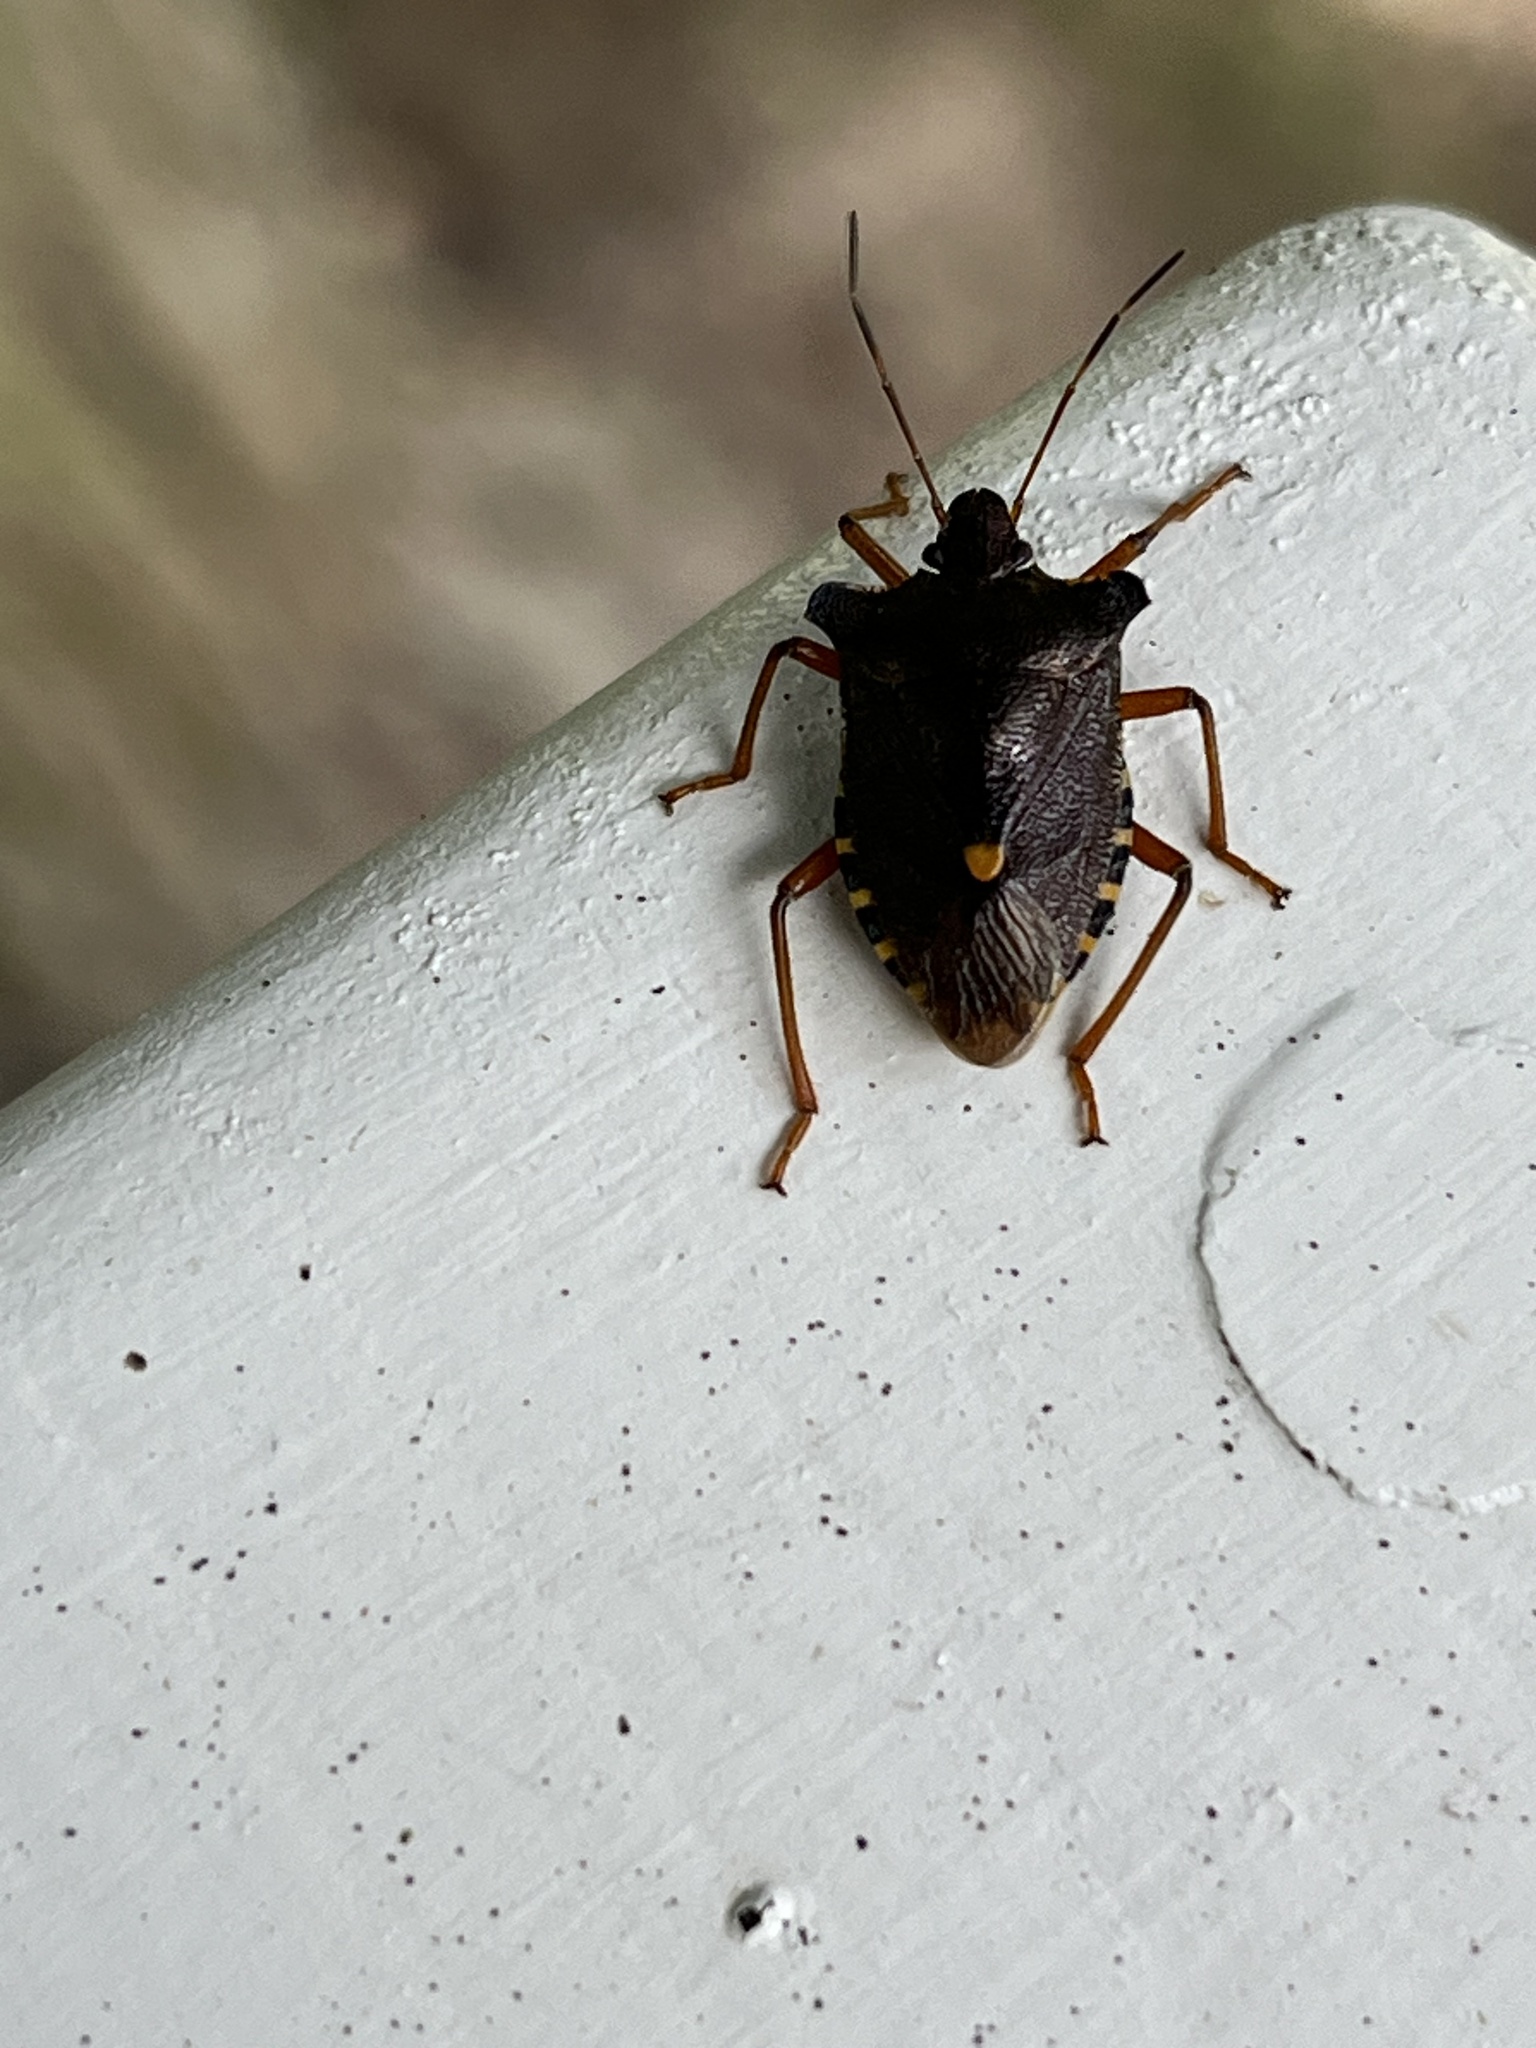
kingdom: Animalia
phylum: Arthropoda
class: Insecta
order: Hemiptera
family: Pentatomidae
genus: Pentatoma
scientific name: Pentatoma rufipes
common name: Forest bug
